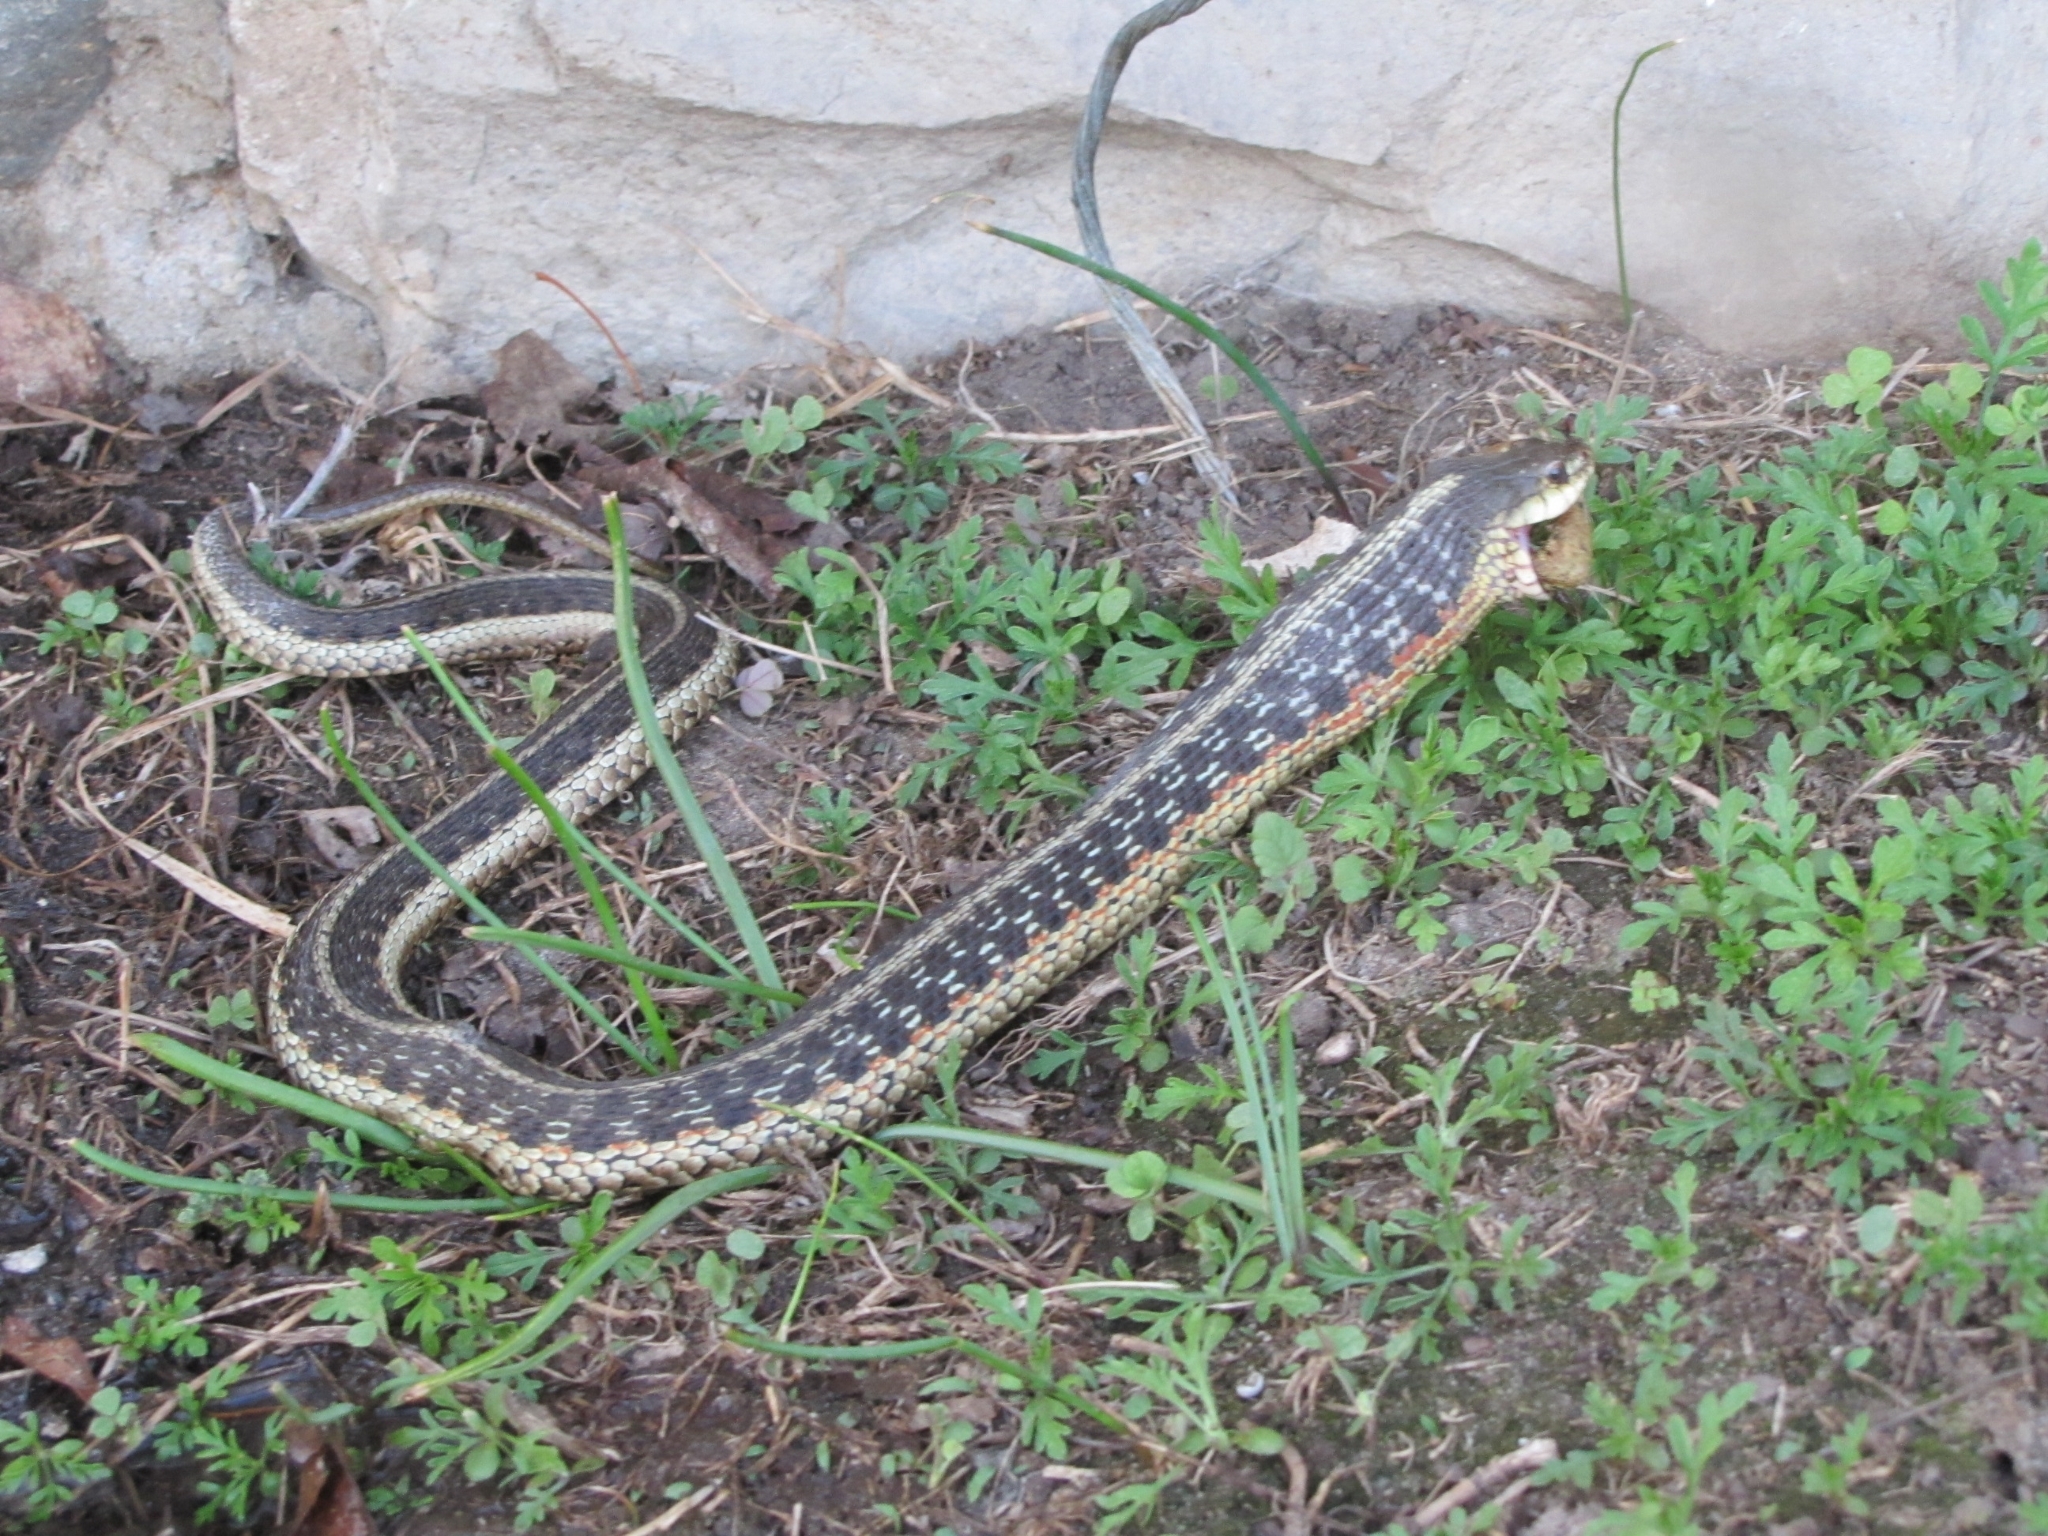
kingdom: Animalia
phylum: Chordata
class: Squamata
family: Colubridae
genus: Thamnophis
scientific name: Thamnophis sirtalis
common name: Common garter snake
